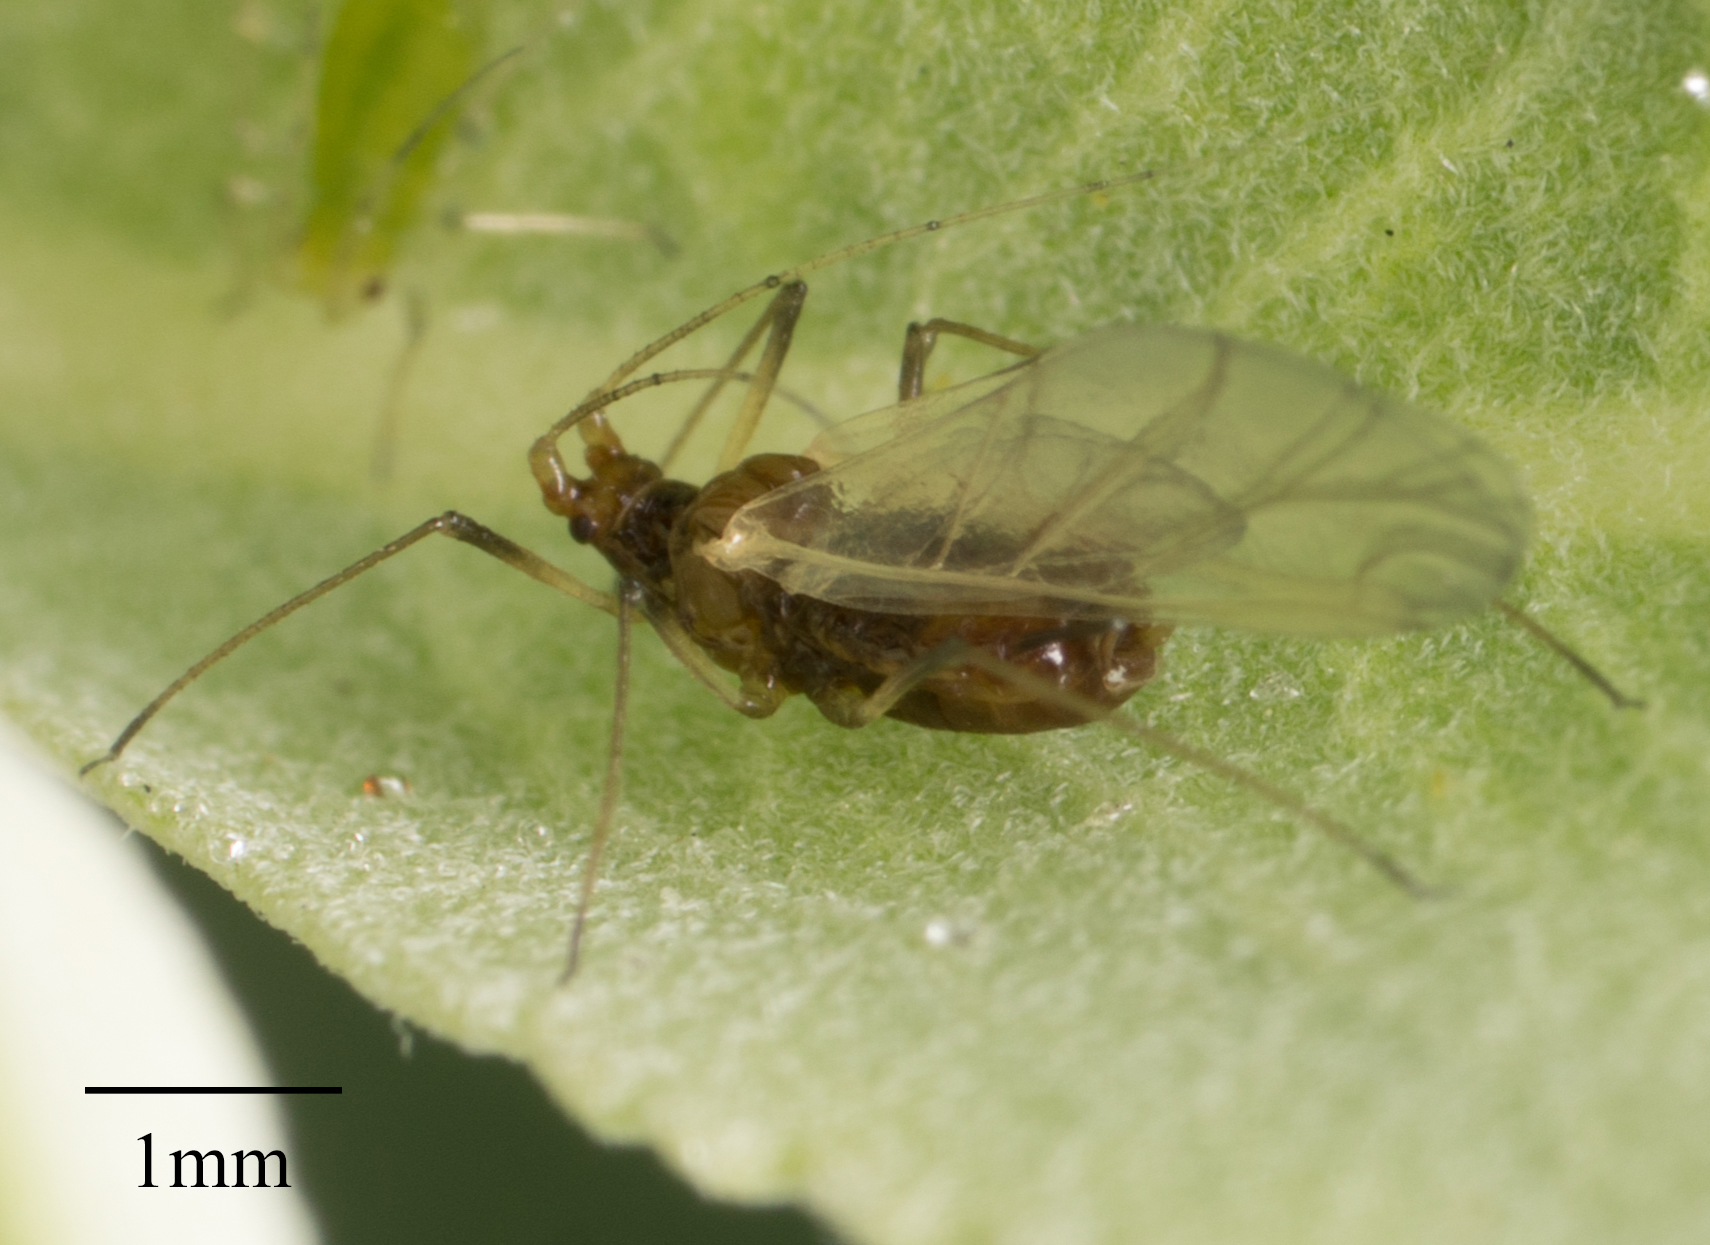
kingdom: Animalia
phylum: Arthropoda
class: Insecta
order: Hemiptera
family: Aphididae
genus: Macrosiphum
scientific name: Macrosiphum salviae
